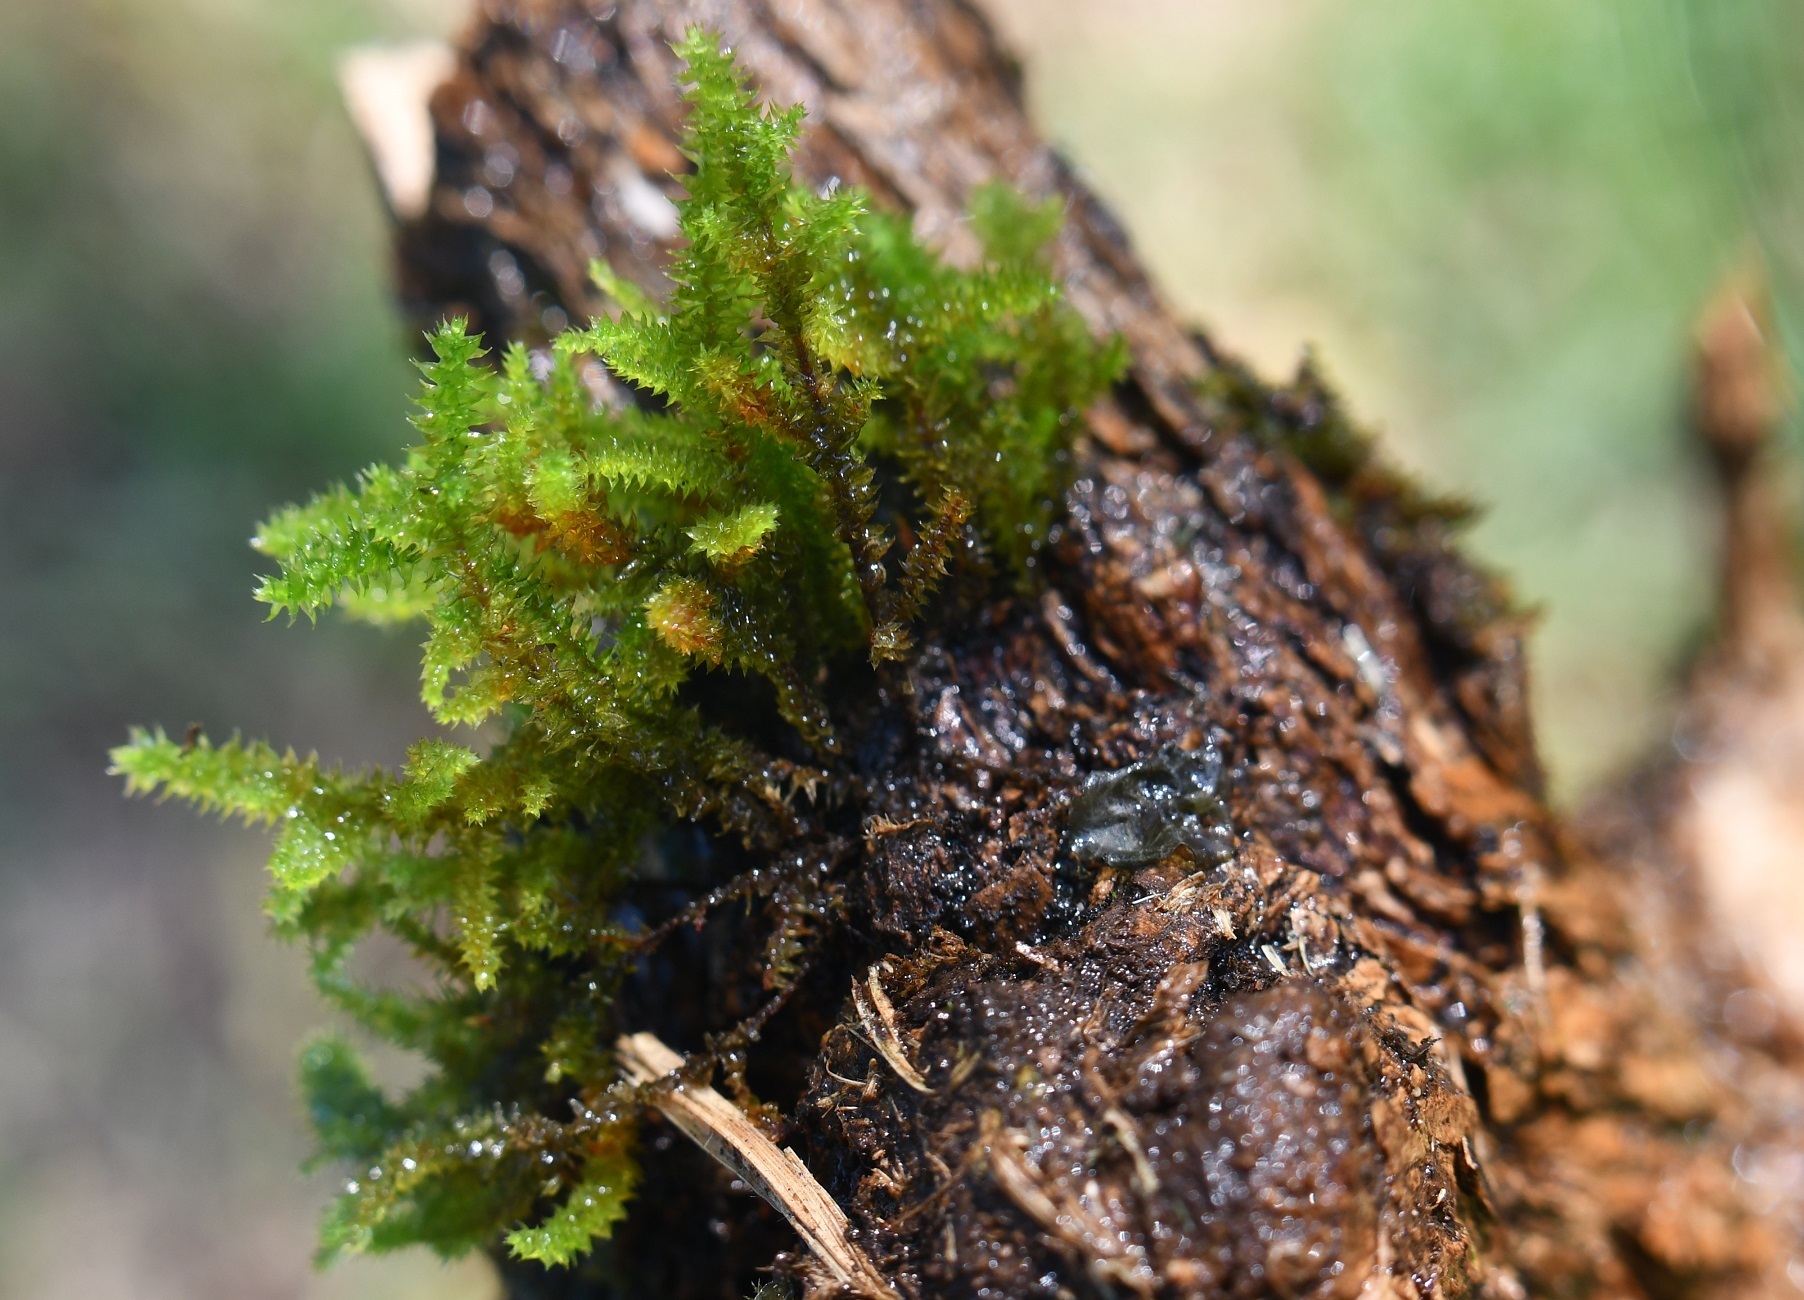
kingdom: Plantae
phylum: Bryophyta
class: Bryopsida
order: Hypnales
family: Hylocomiaceae
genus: Hylocomiadelphus
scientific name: Hylocomiadelphus triquetrus
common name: Rough goose neck moss
